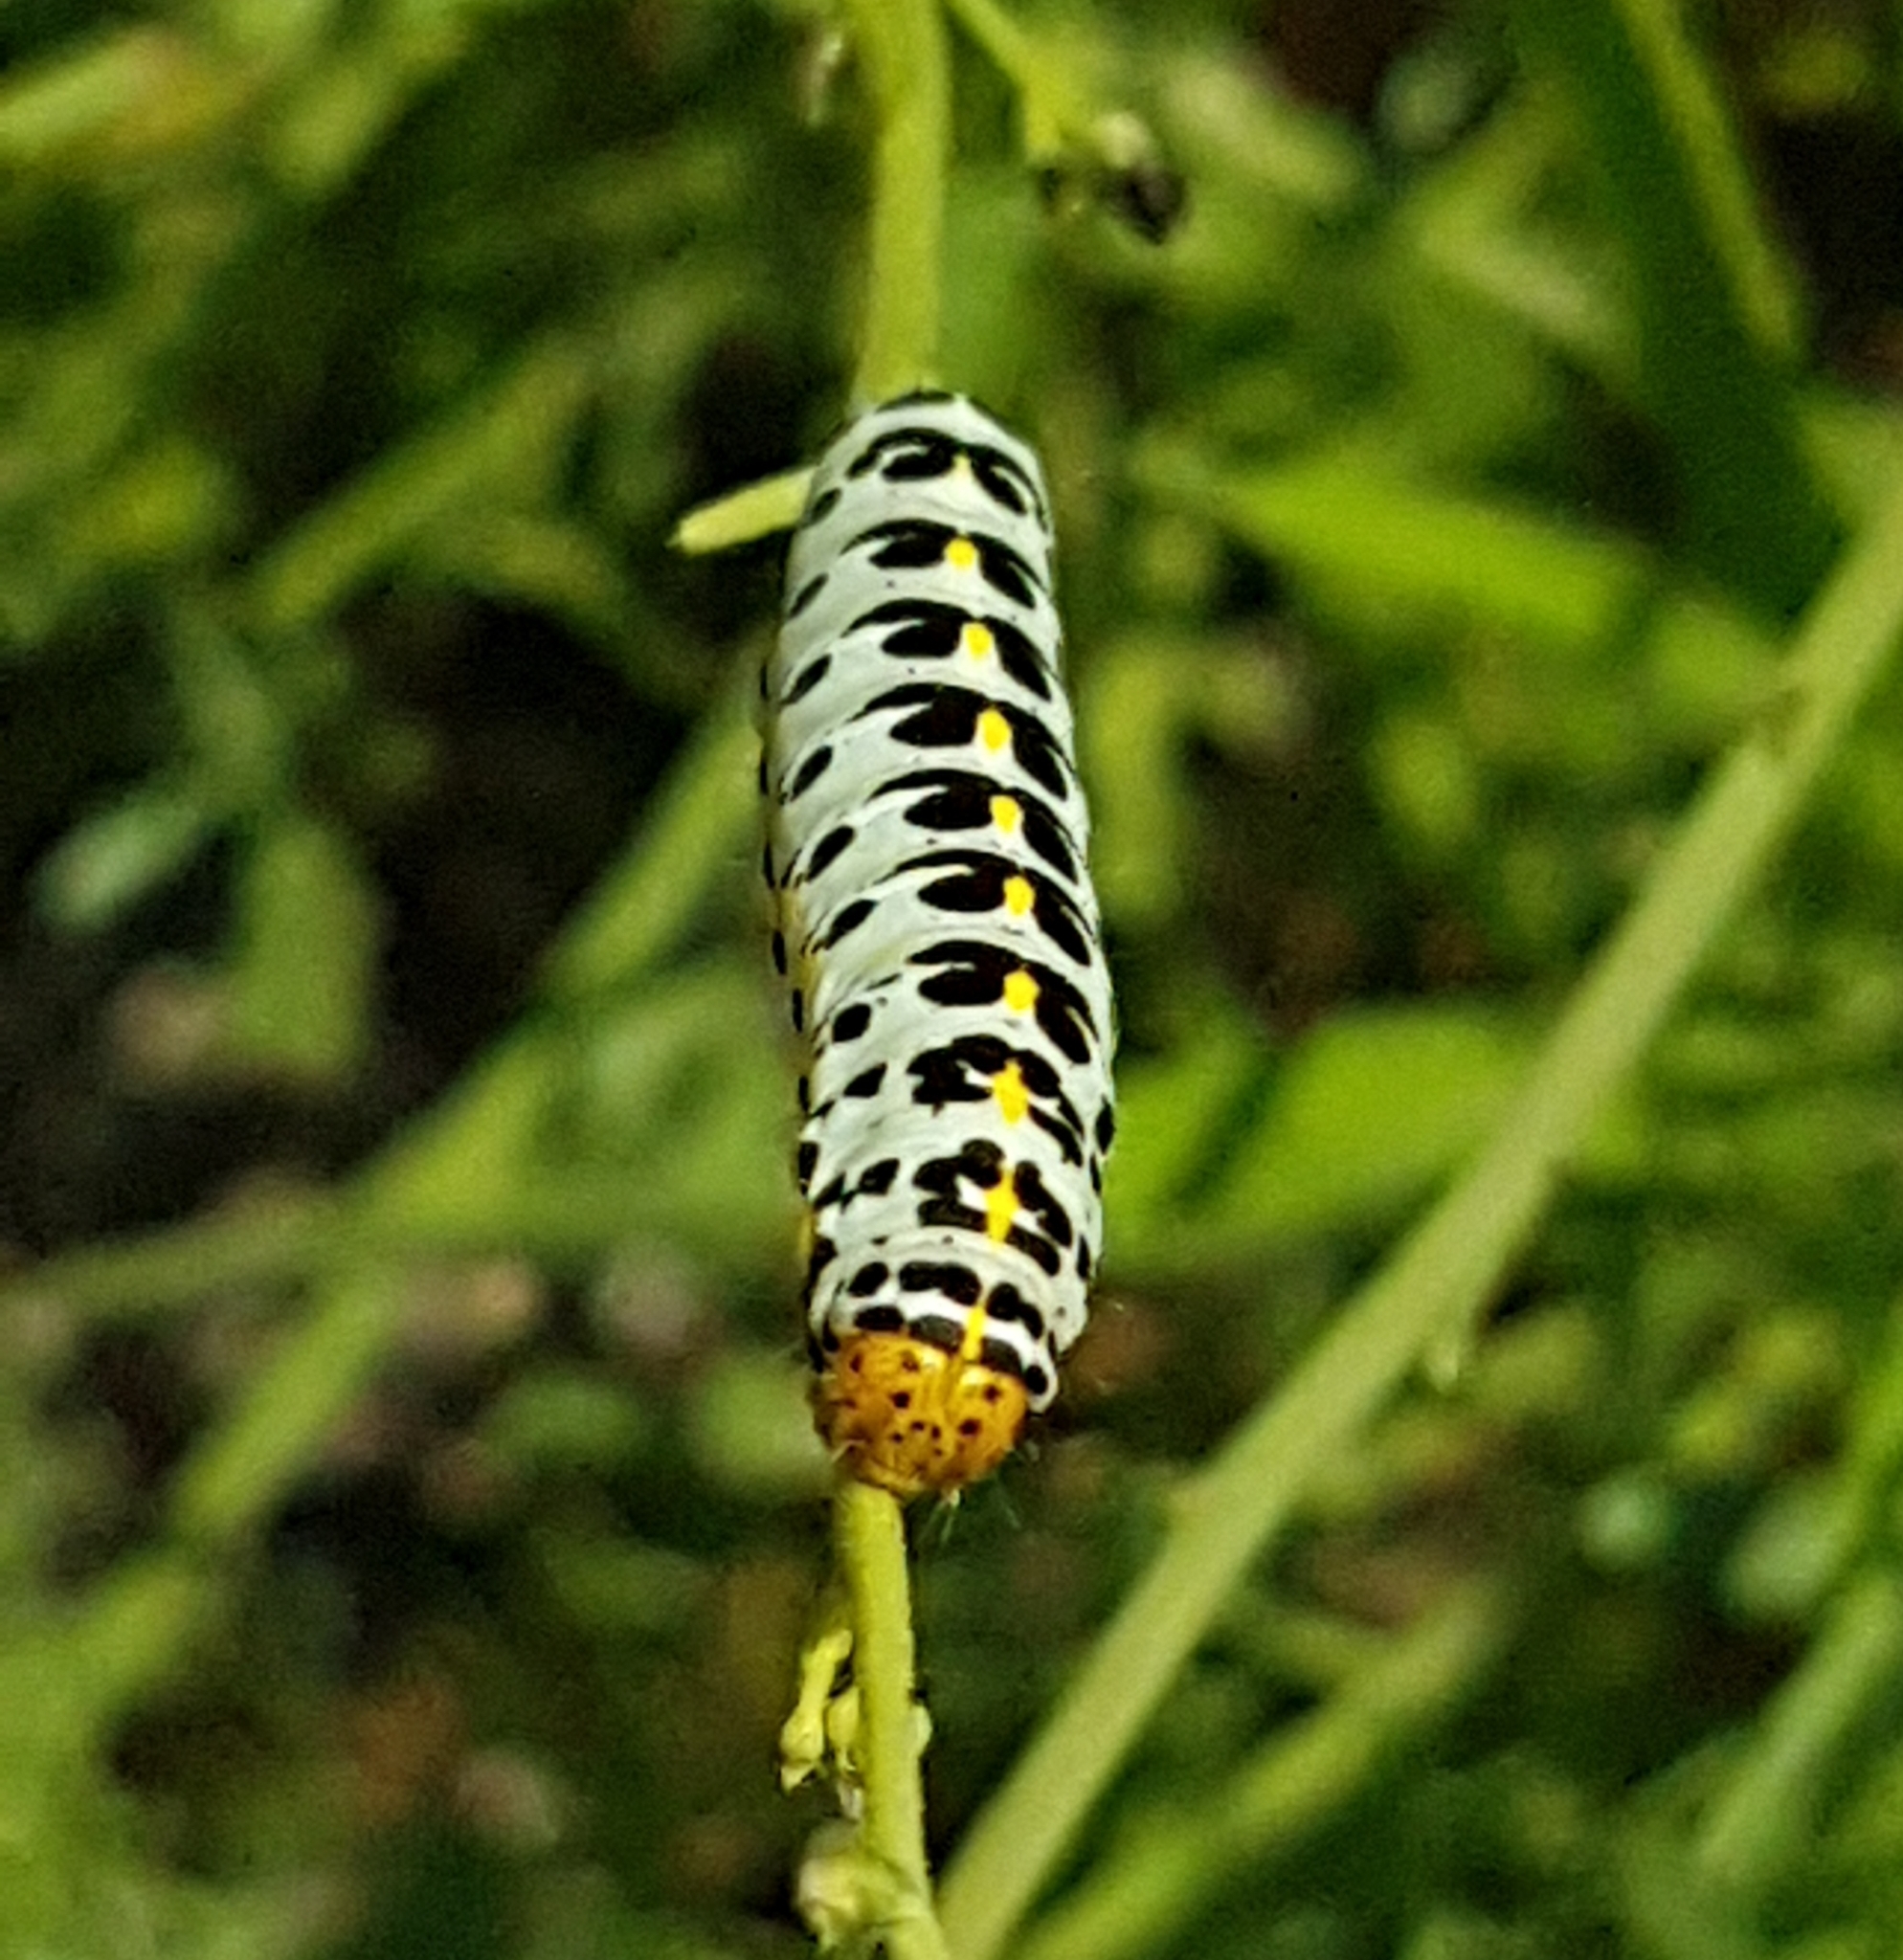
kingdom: Animalia
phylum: Arthropoda
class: Insecta
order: Lepidoptera
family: Noctuidae
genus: Cucullia
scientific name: Cucullia caninae
